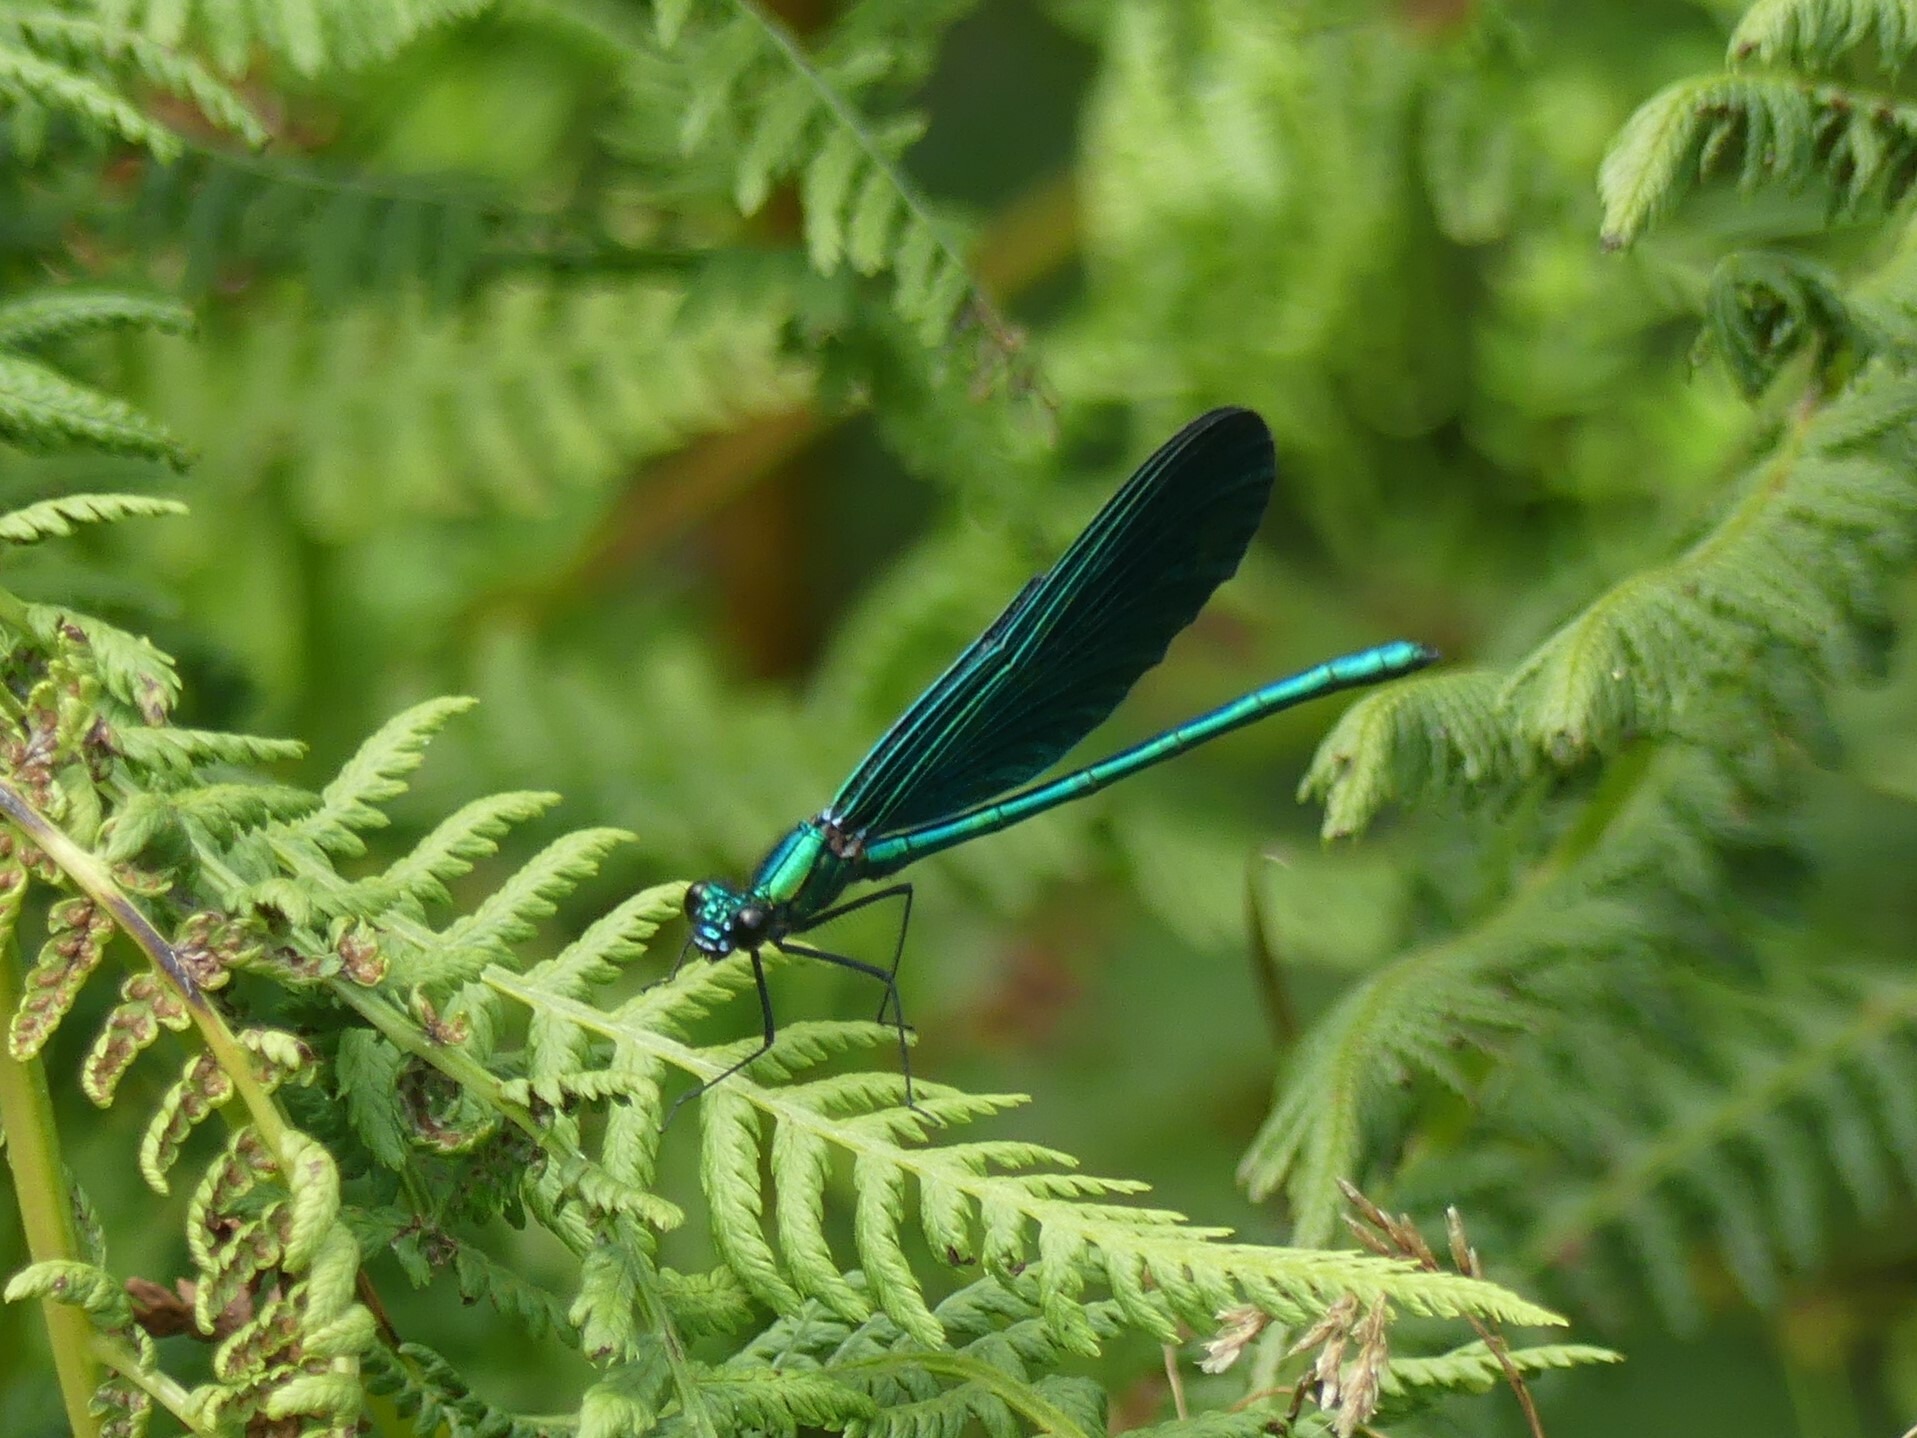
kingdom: Animalia
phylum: Arthropoda
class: Insecta
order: Odonata
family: Calopterygidae
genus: Calopteryx
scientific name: Calopteryx virgo
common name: Beautiful demoiselle
